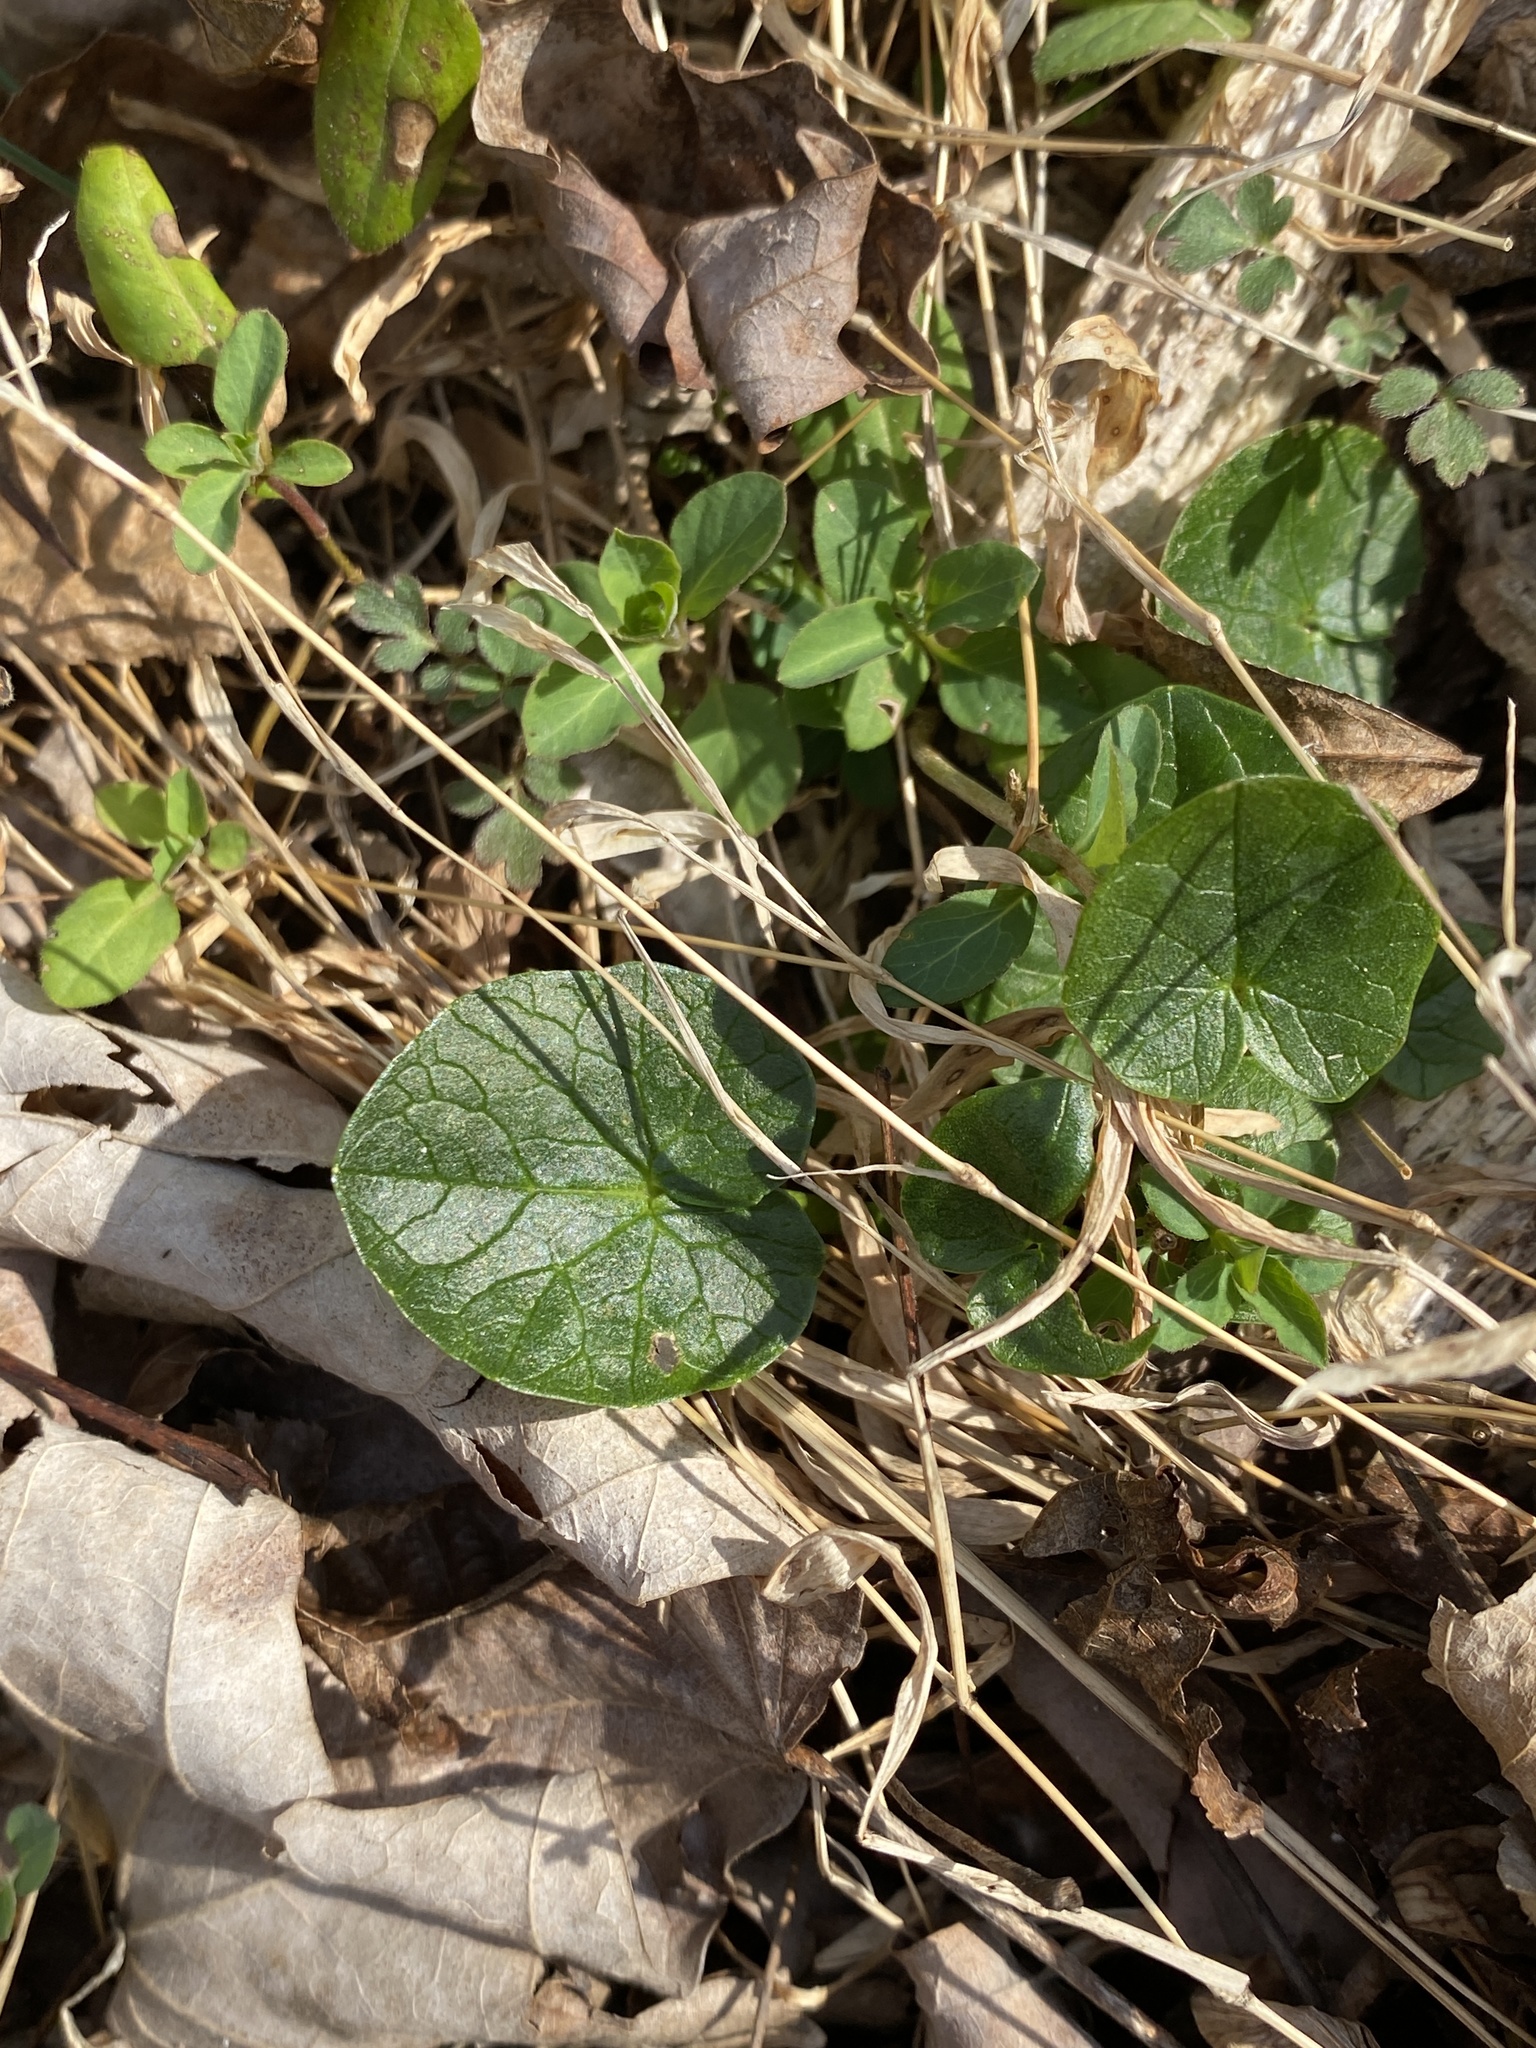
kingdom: Plantae
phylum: Tracheophyta
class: Magnoliopsida
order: Ranunculales
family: Ranunculaceae
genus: Ficaria
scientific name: Ficaria verna
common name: Lesser celandine
